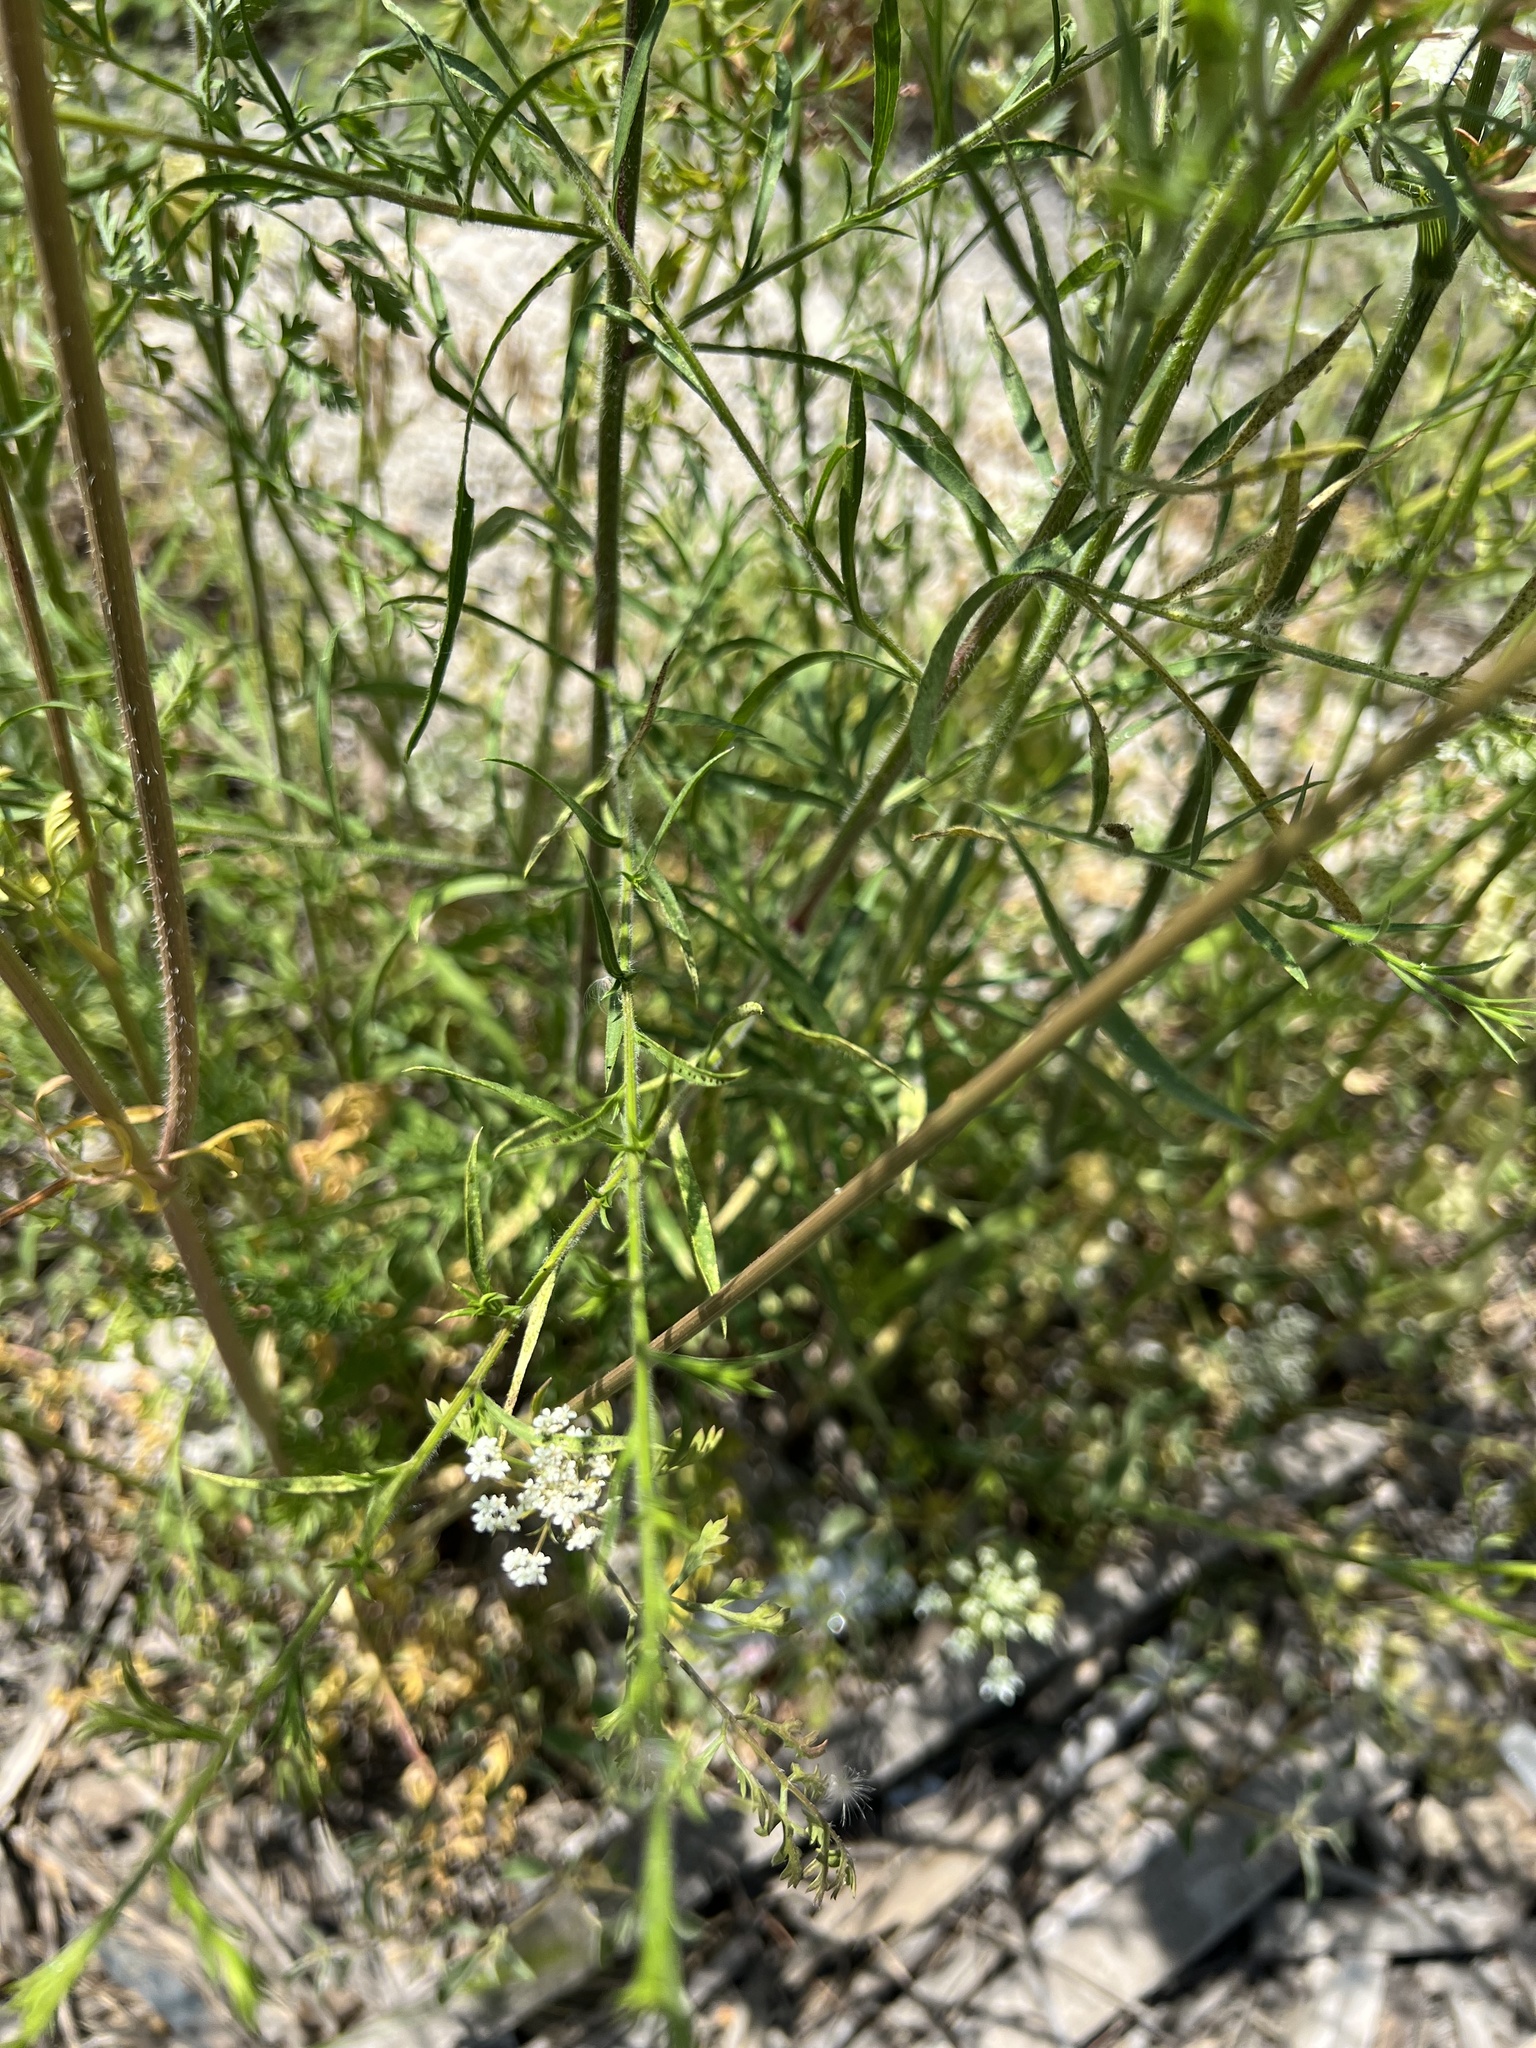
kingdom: Plantae
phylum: Tracheophyta
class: Magnoliopsida
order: Apiales
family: Apiaceae
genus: Daucus
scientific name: Daucus carota
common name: Wild carrot
